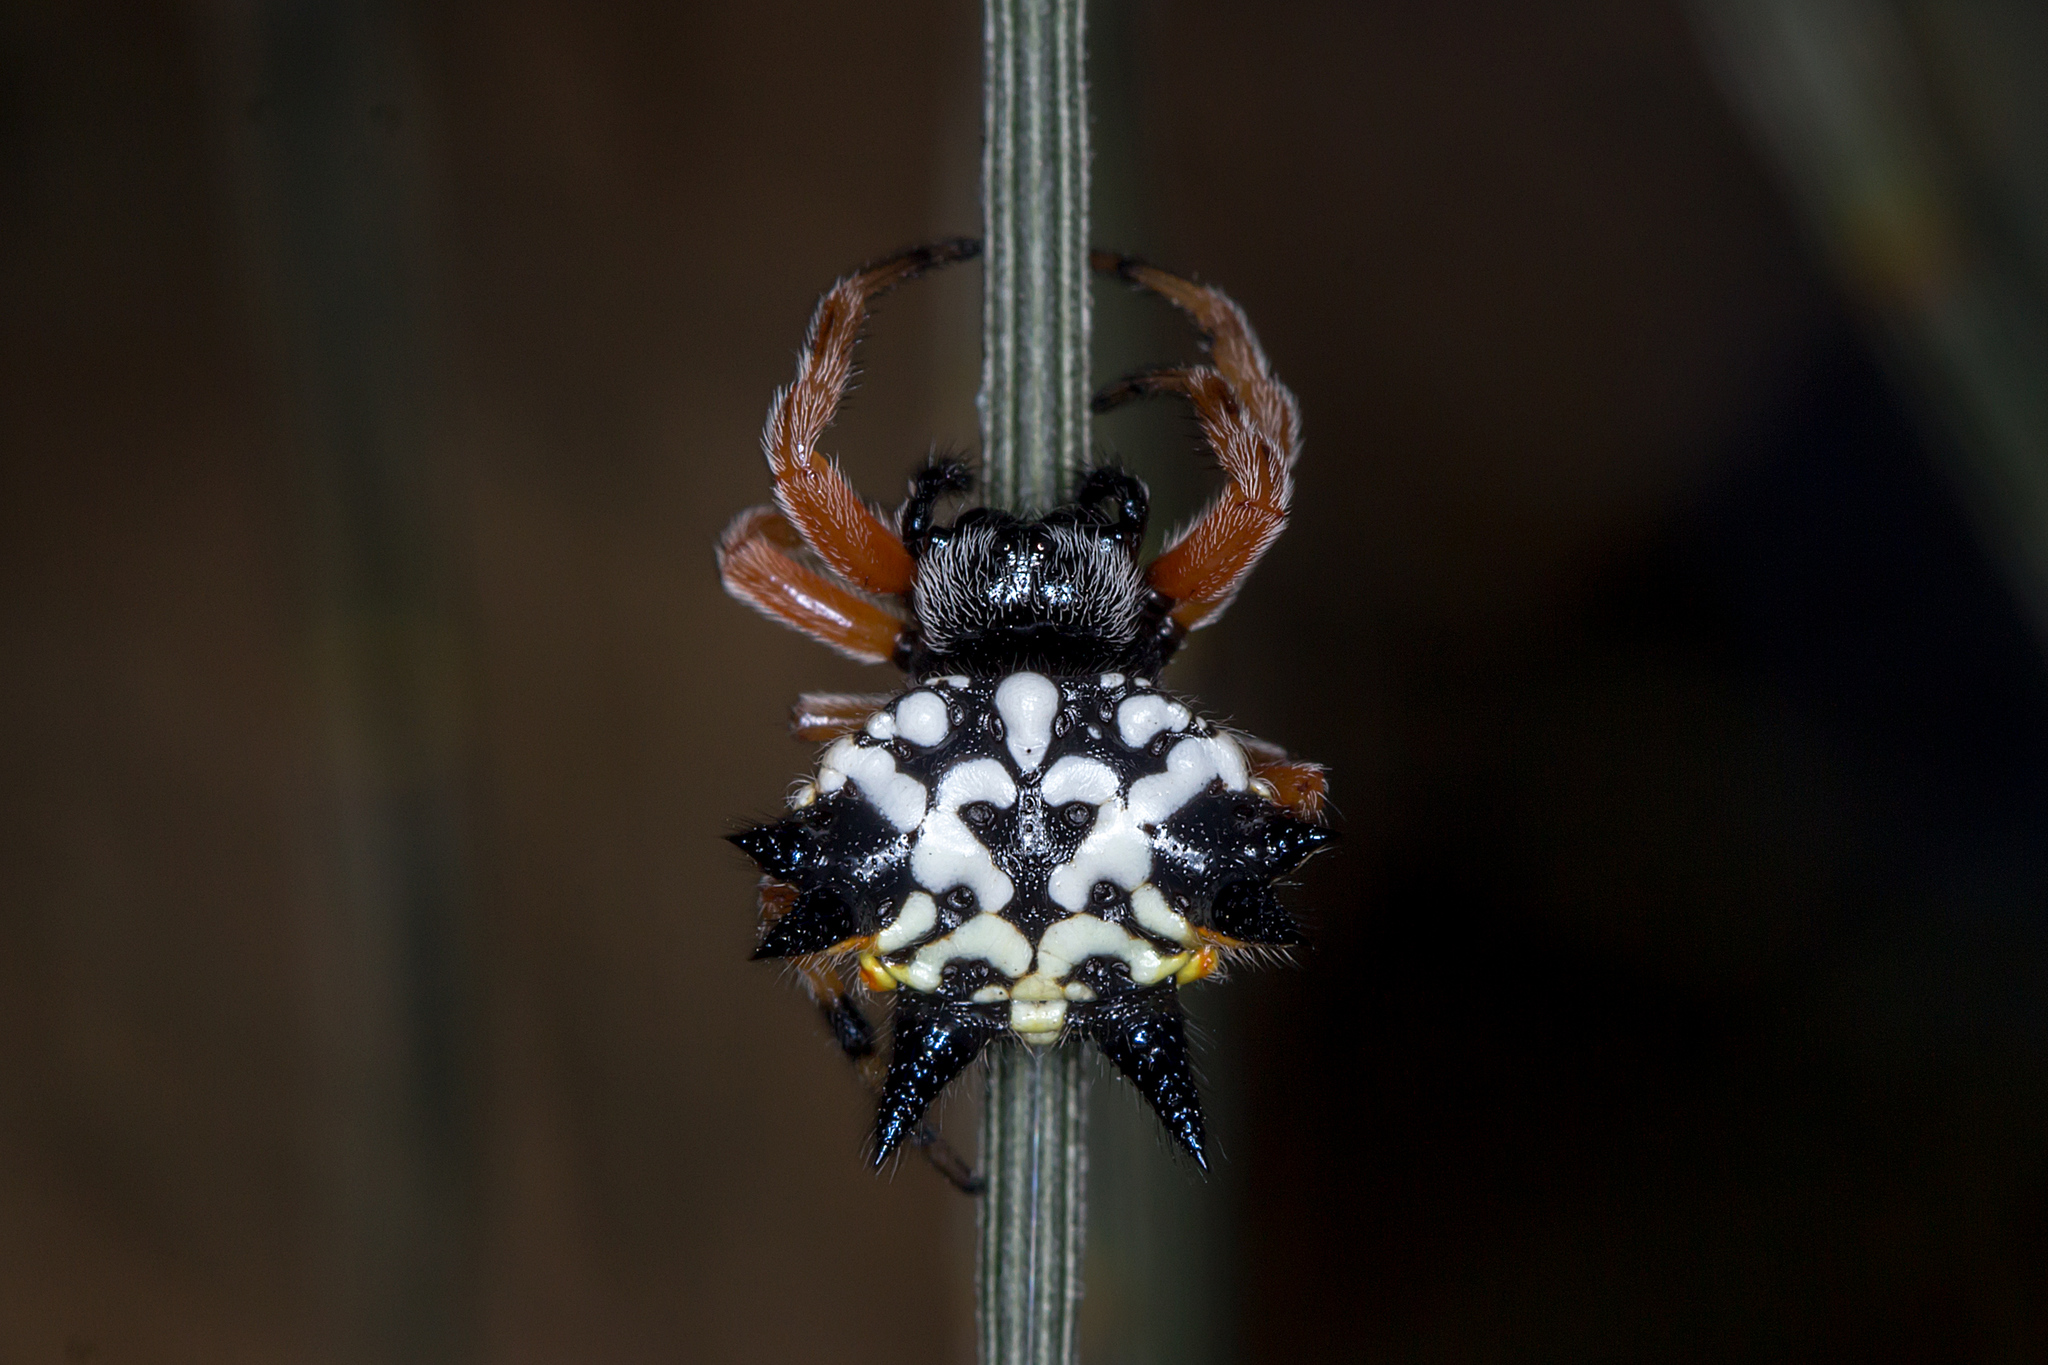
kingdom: Animalia
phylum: Arthropoda
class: Arachnida
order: Araneae
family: Araneidae
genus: Austracantha
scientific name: Austracantha minax
